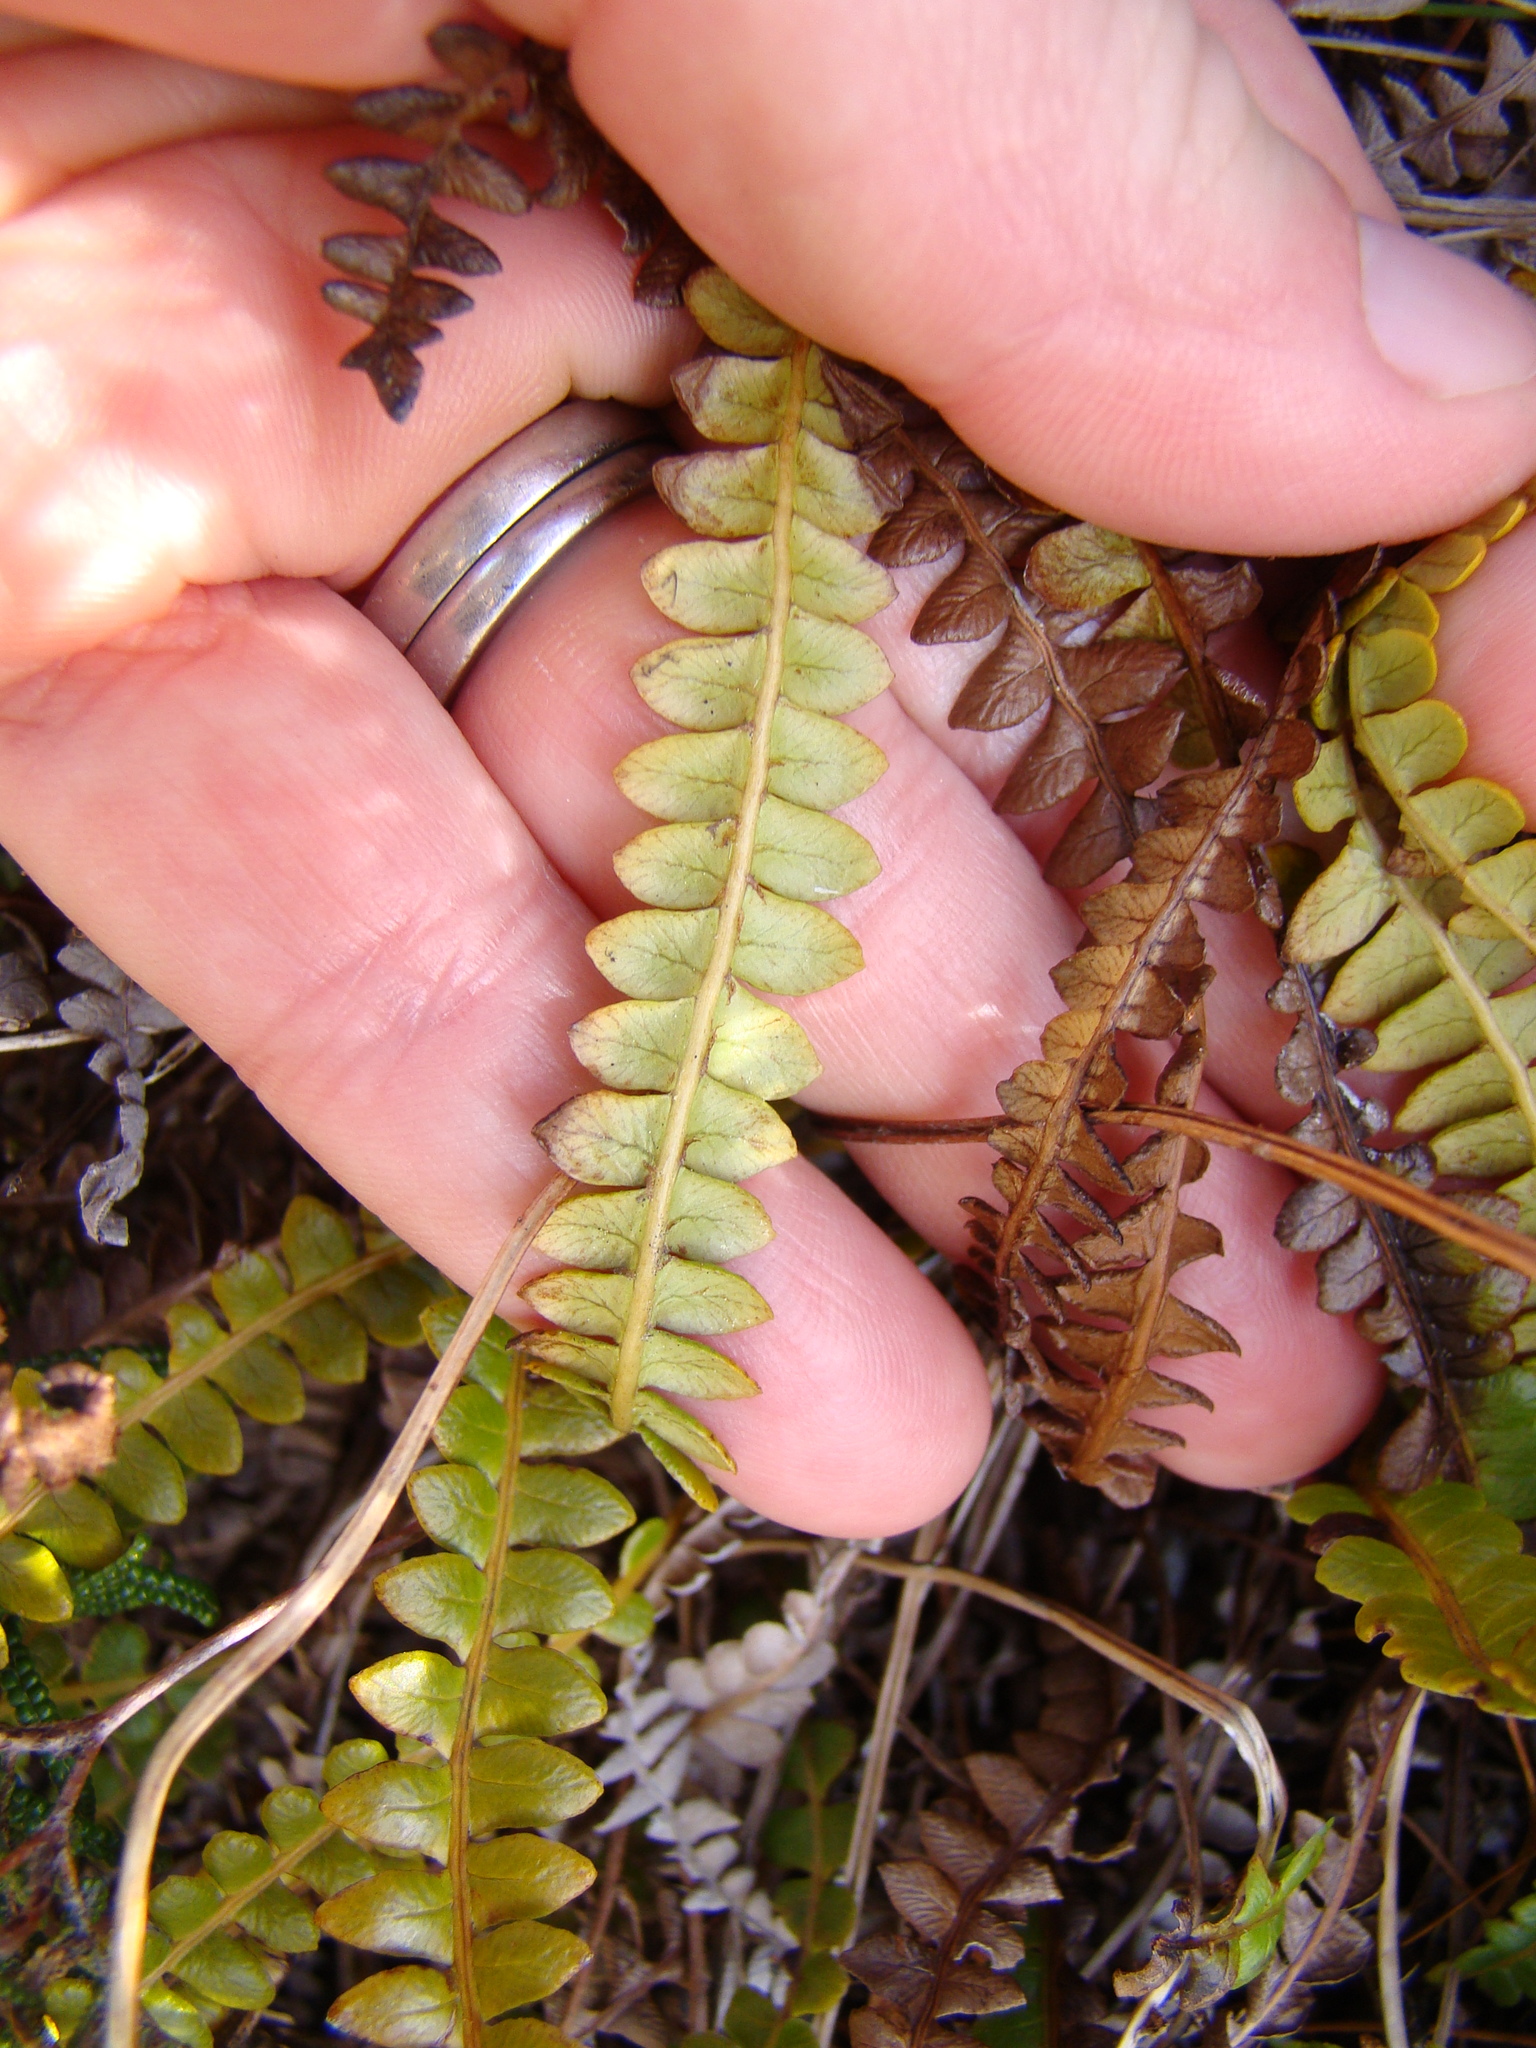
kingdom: Plantae
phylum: Tracheophyta
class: Polypodiopsida
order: Polypodiales
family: Blechnaceae
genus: Austroblechnum
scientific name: Austroblechnum penna-marina
